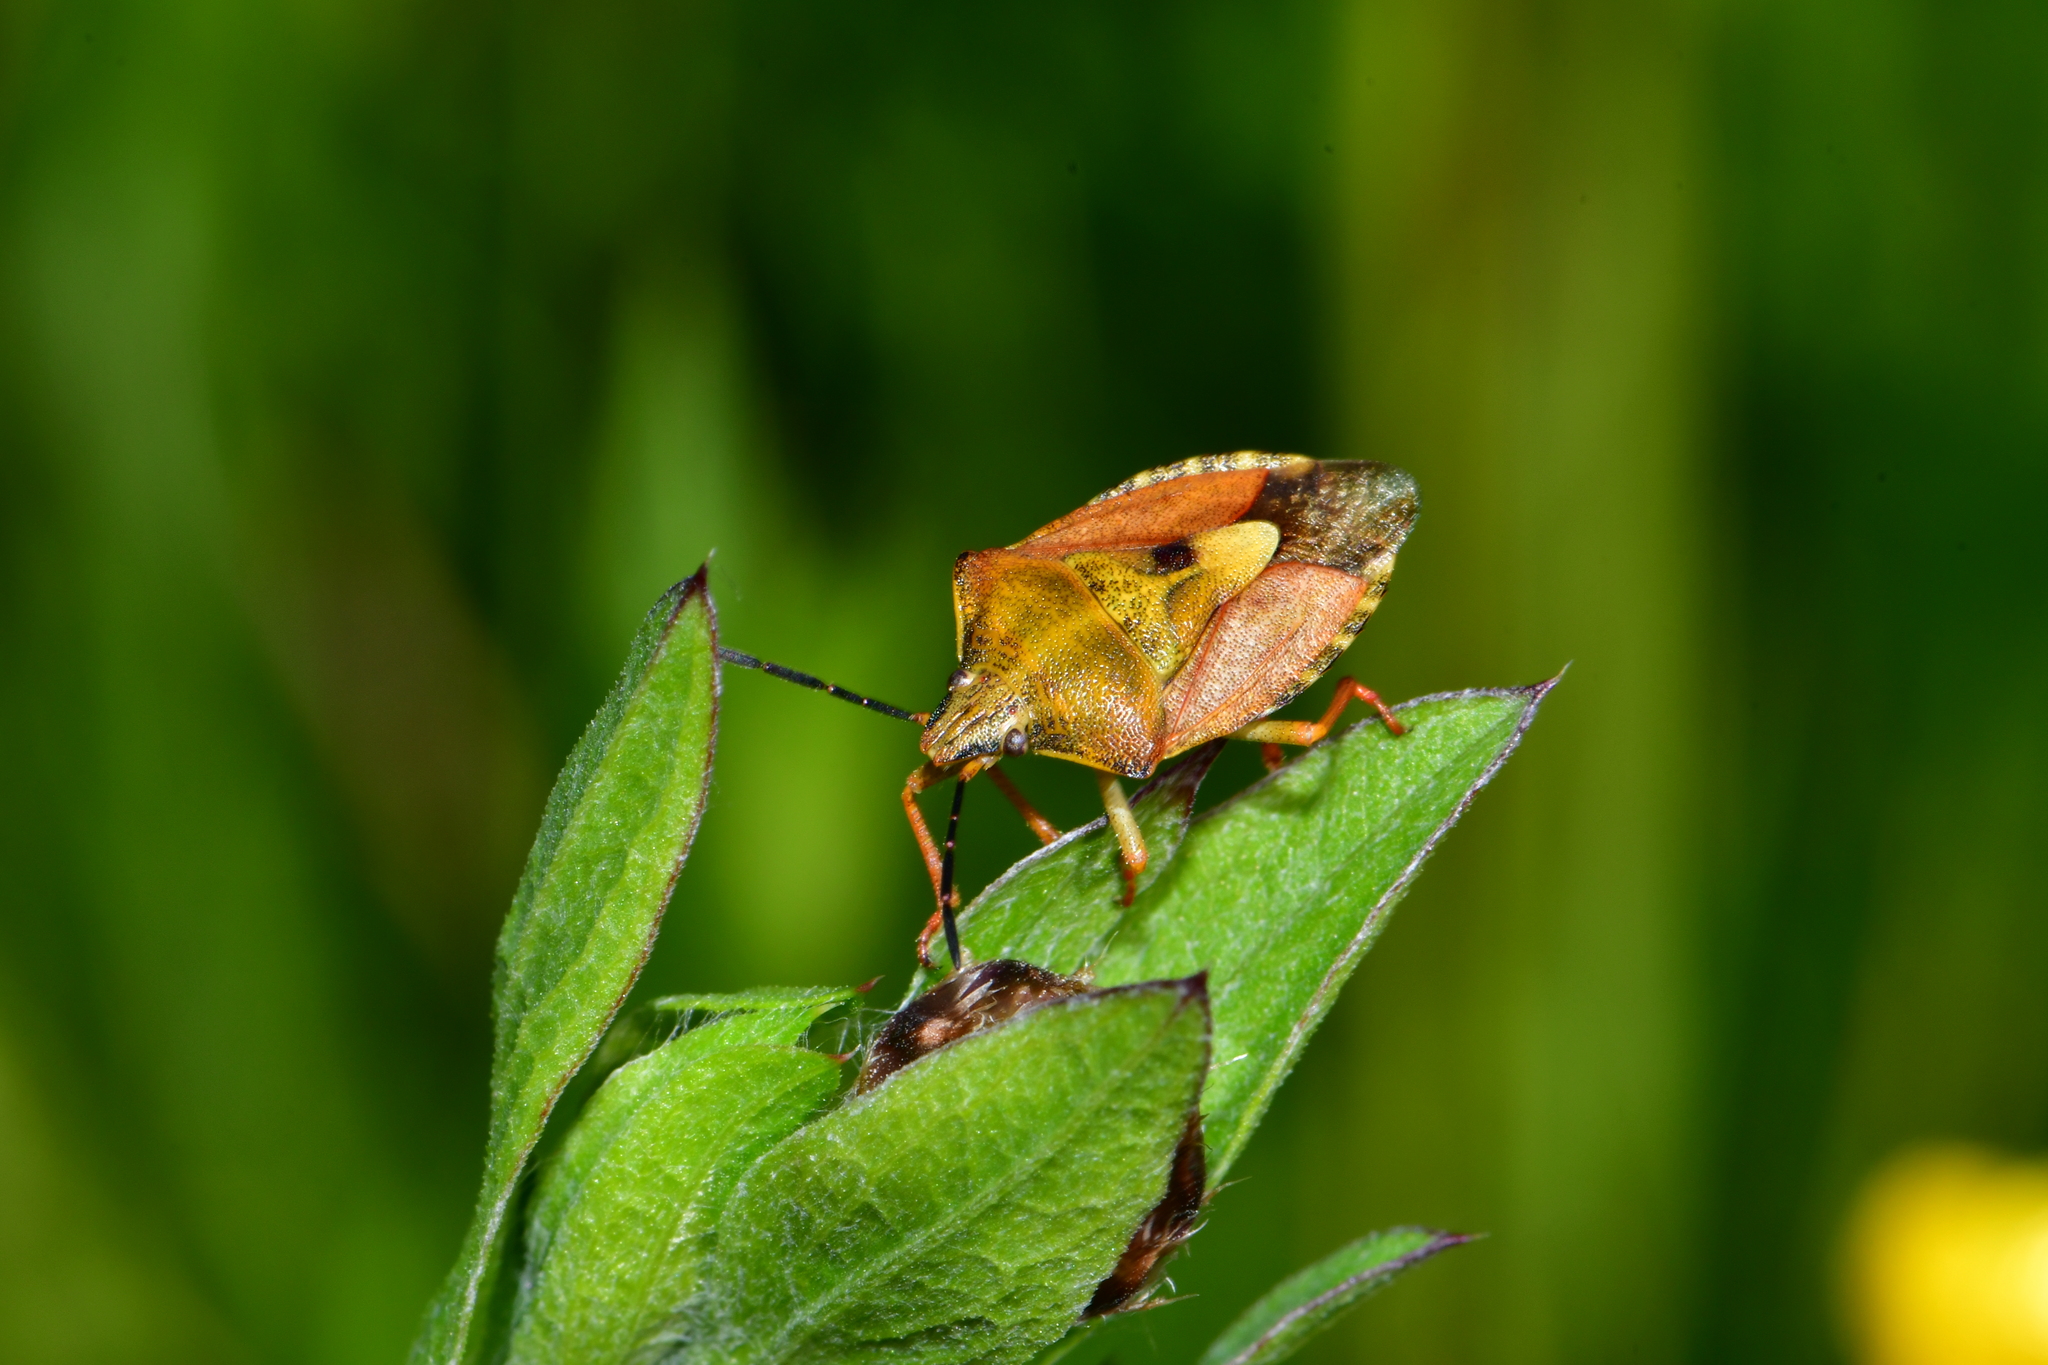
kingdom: Animalia
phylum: Arthropoda
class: Insecta
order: Hemiptera
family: Pentatomidae
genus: Carpocoris
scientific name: Carpocoris purpureipennis
